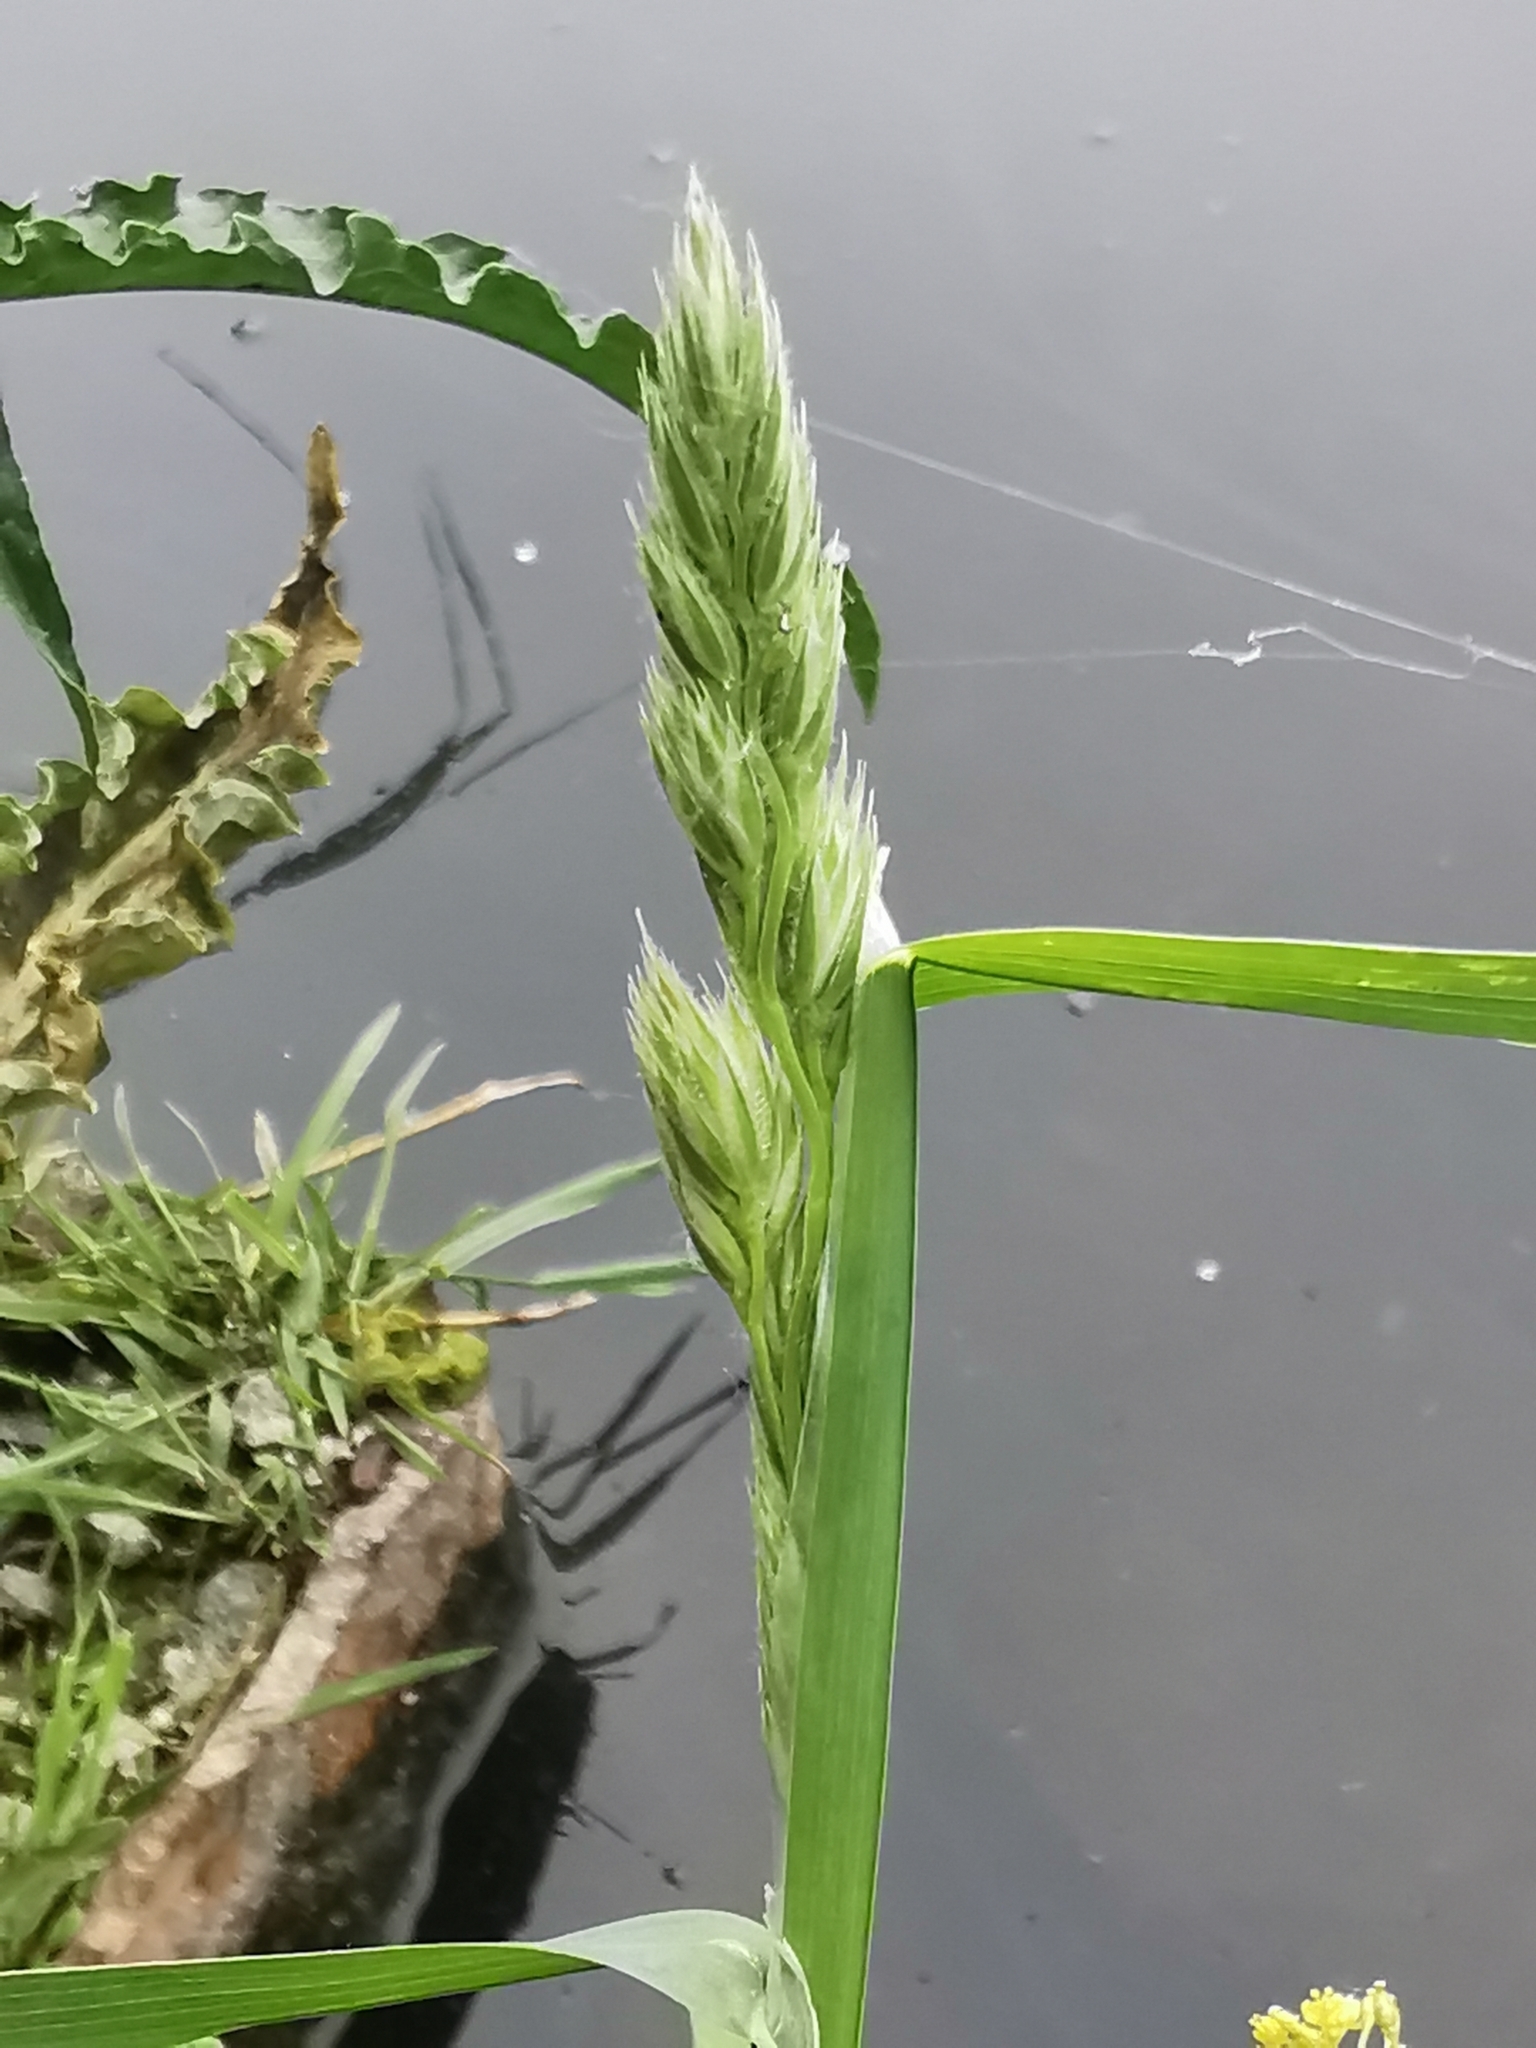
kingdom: Plantae
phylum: Tracheophyta
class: Liliopsida
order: Poales
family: Poaceae
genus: Dactylis
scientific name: Dactylis glomerata
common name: Orchardgrass
